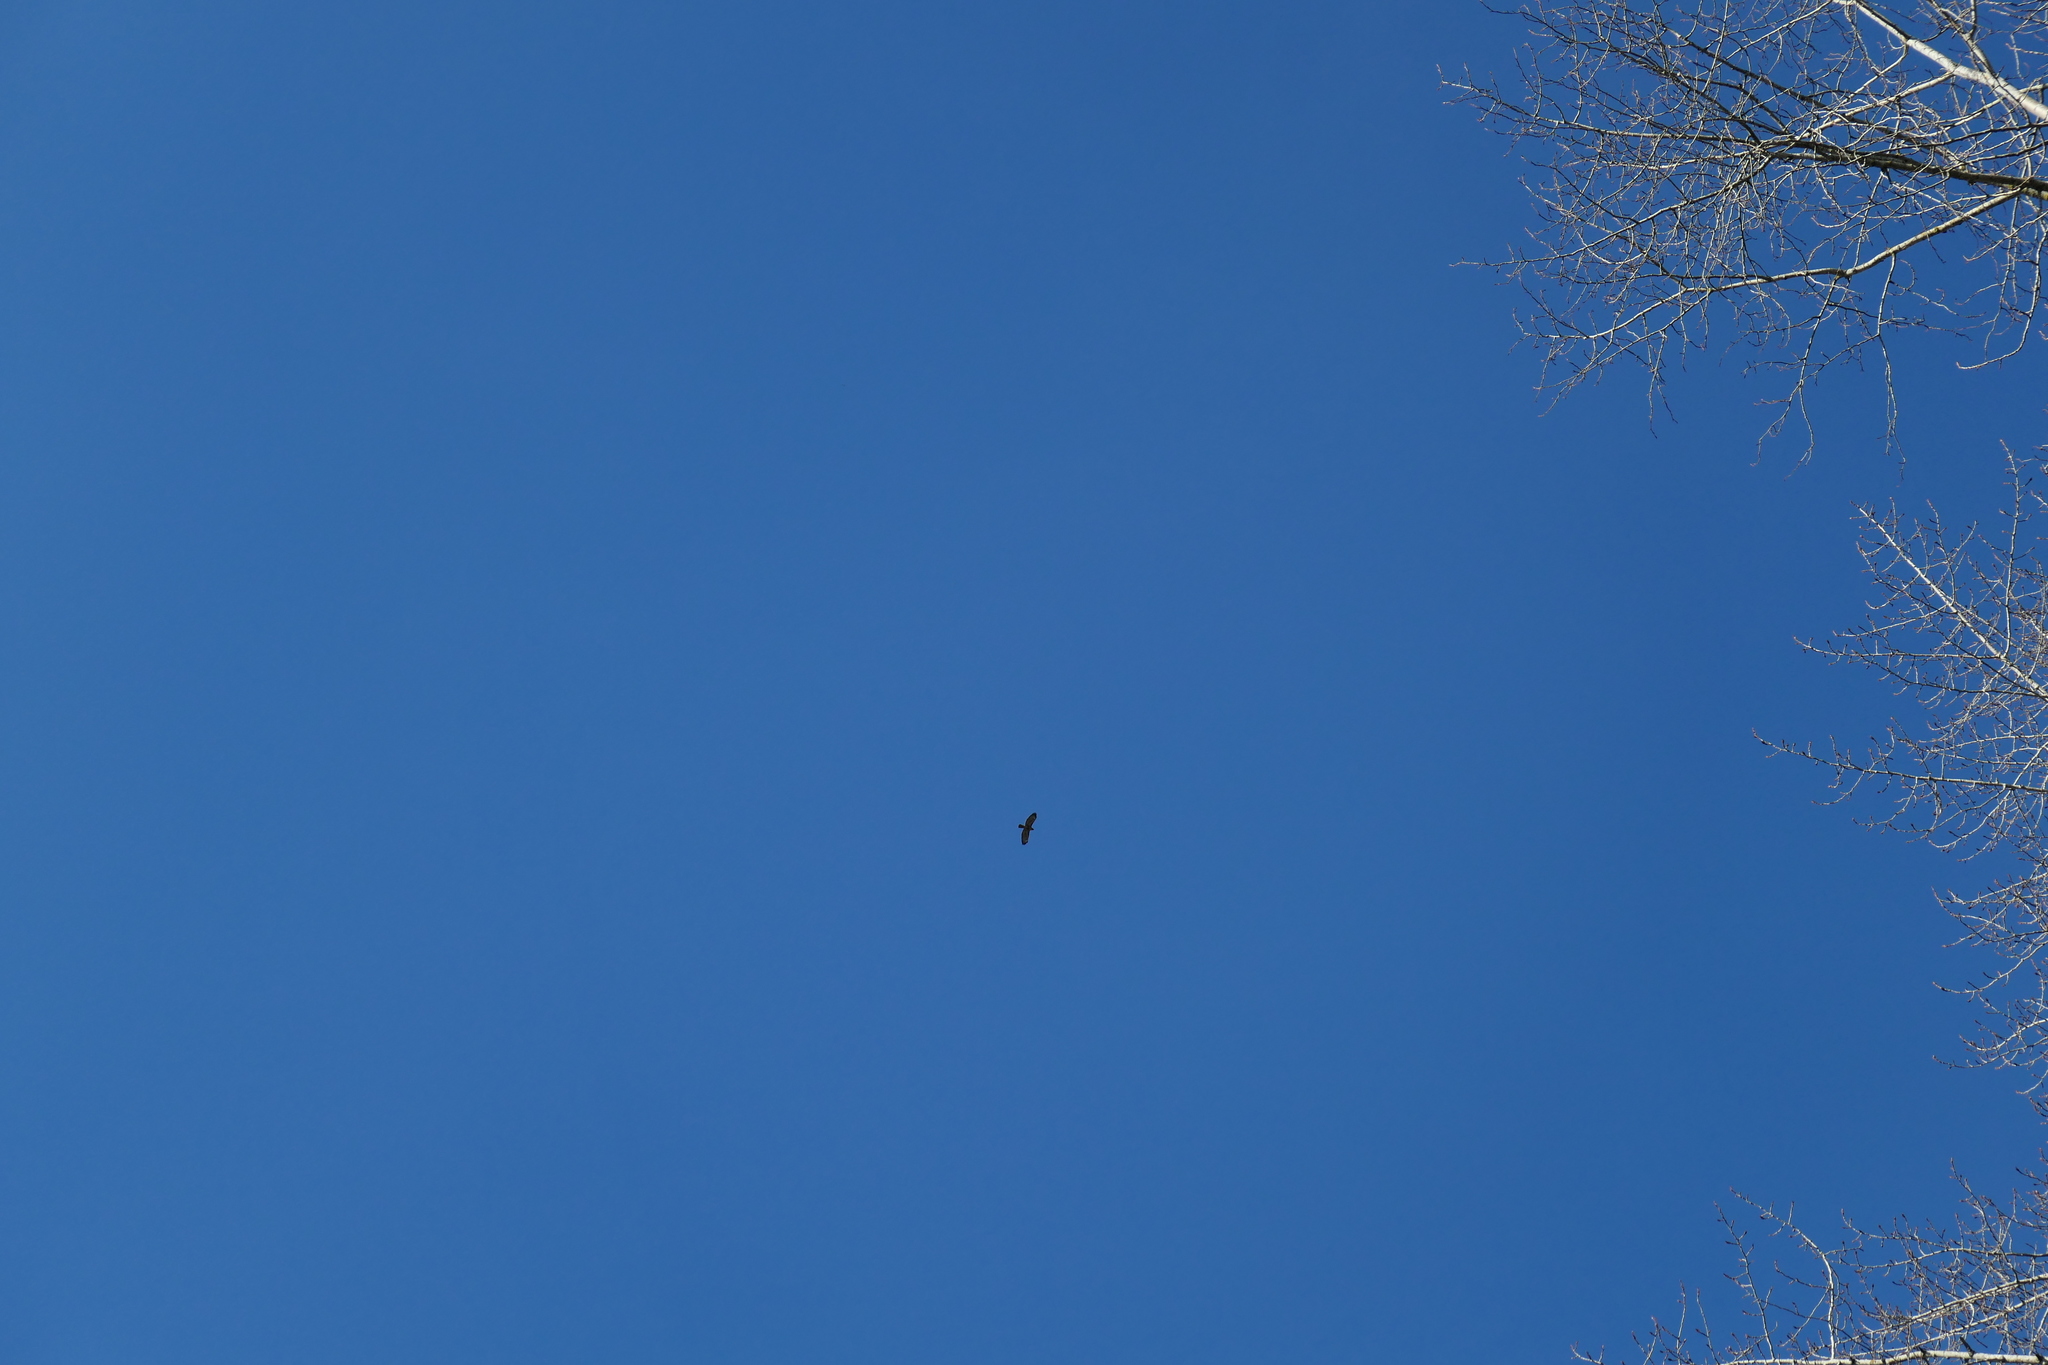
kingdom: Animalia
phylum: Chordata
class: Aves
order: Accipitriformes
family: Accipitridae
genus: Buteo
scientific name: Buteo jamaicensis
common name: Red-tailed hawk
